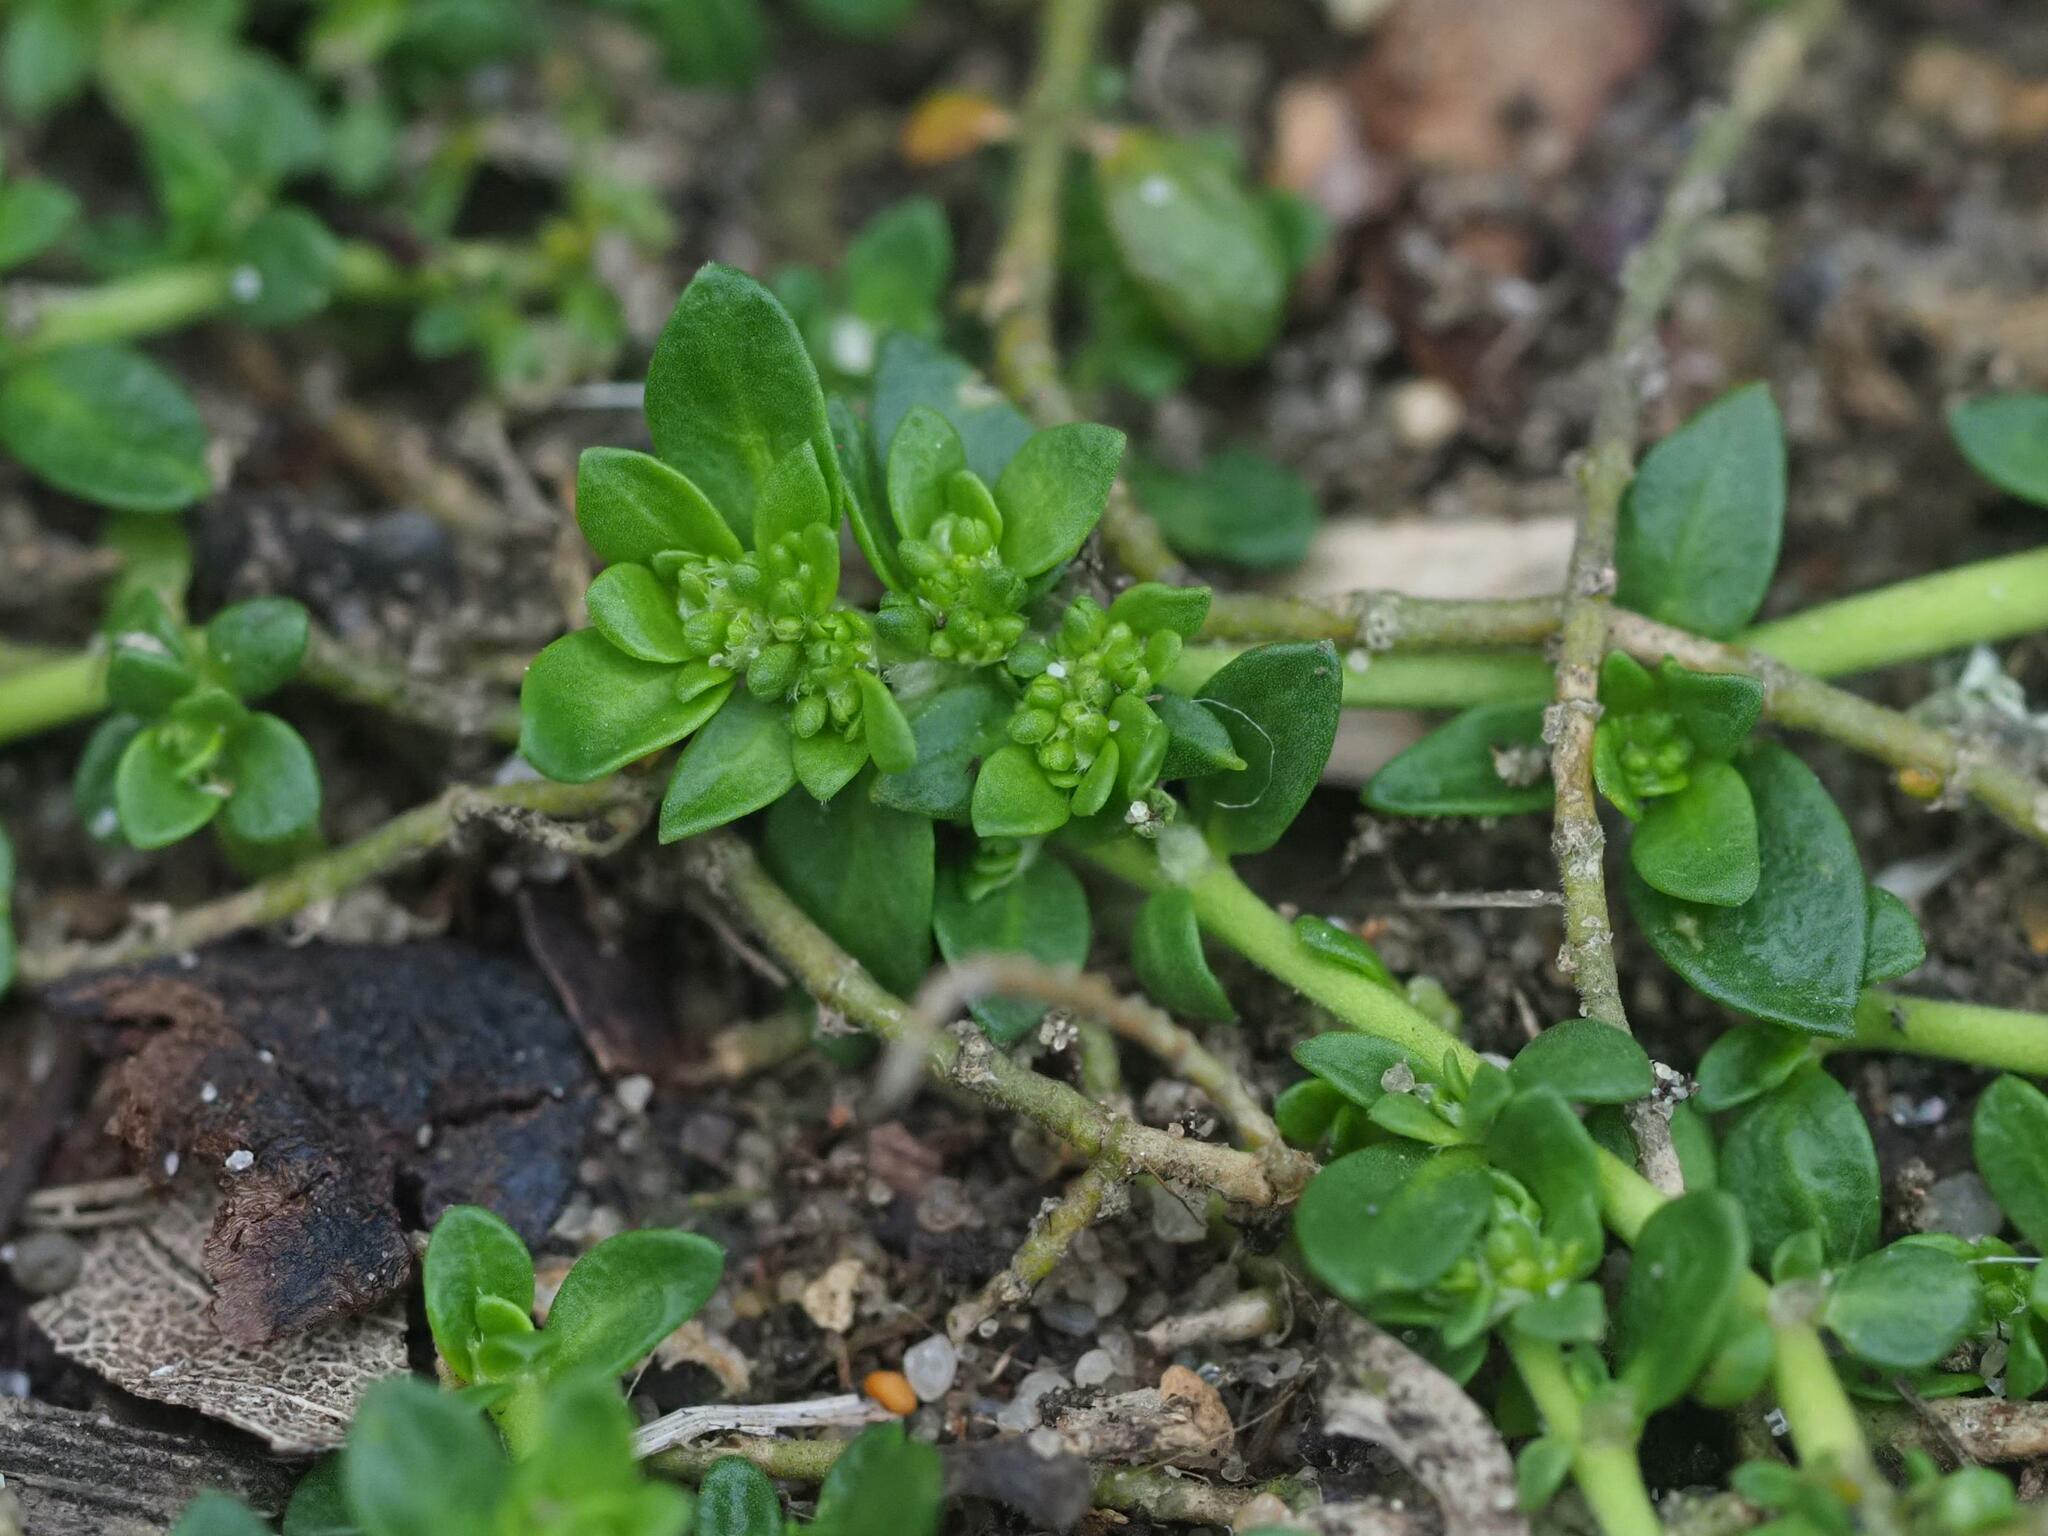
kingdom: Plantae
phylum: Tracheophyta
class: Magnoliopsida
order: Caryophyllales
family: Caryophyllaceae
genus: Herniaria
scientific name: Herniaria glabra
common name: Smooth rupturewort
